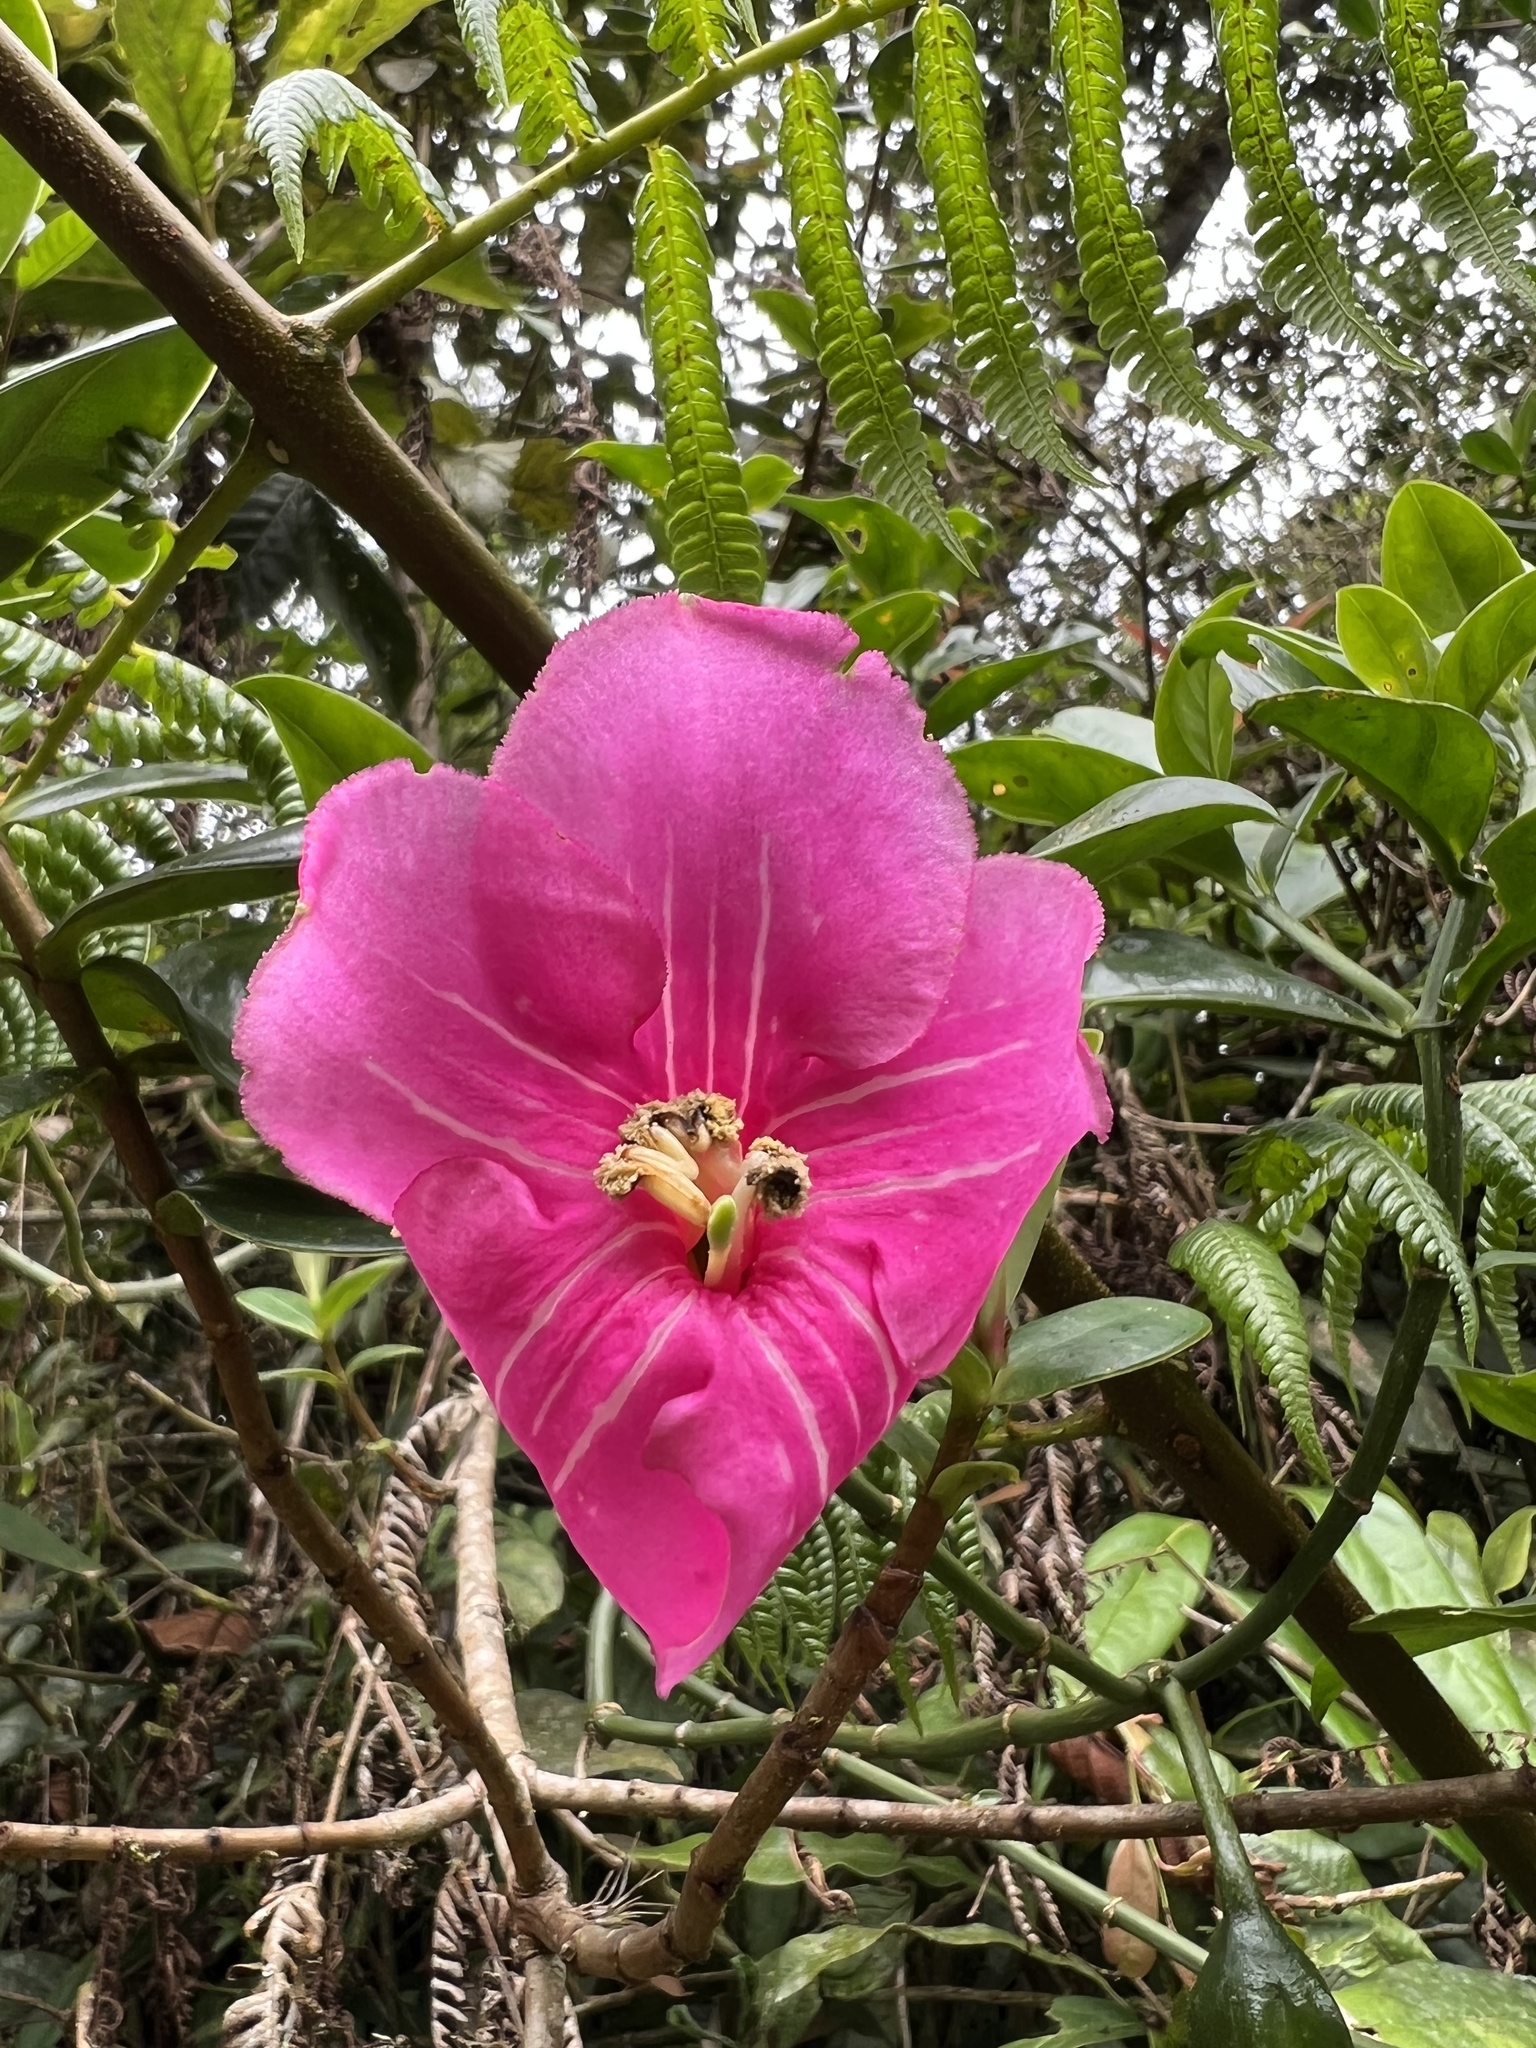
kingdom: Plantae
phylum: Tracheophyta
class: Magnoliopsida
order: Gentianales
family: Gentianaceae
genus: Symbolanthus
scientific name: Symbolanthus anomalus
